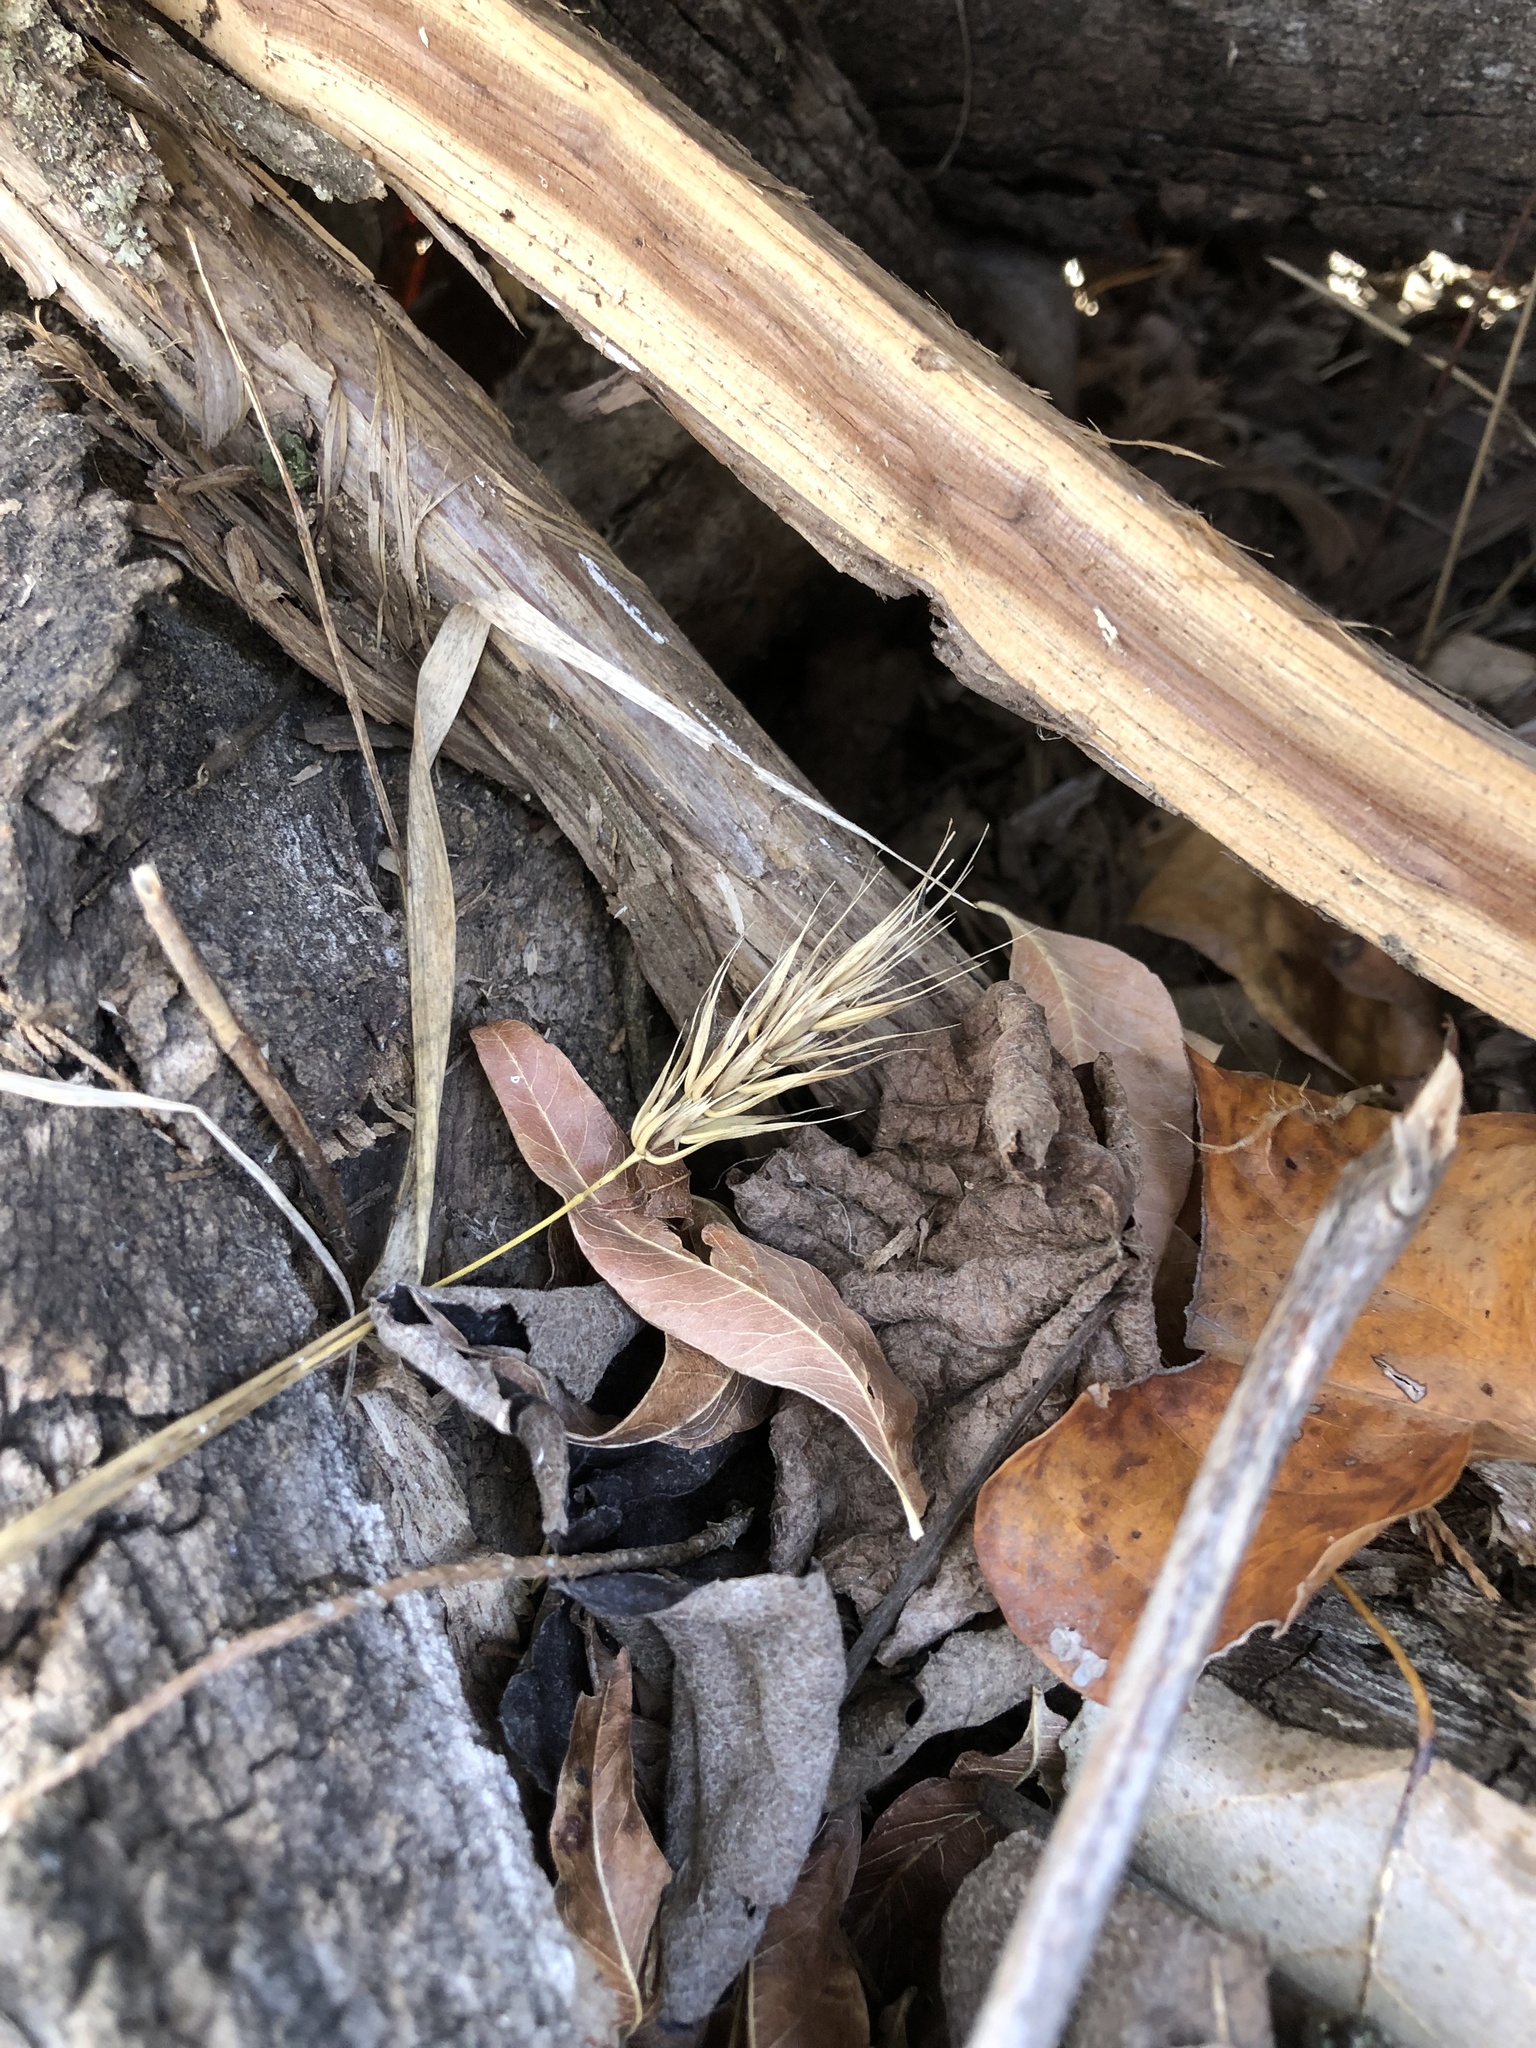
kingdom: Plantae
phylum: Tracheophyta
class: Liliopsida
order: Poales
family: Poaceae
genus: Elymus
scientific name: Elymus virginicus
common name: Common eastern wildrye
